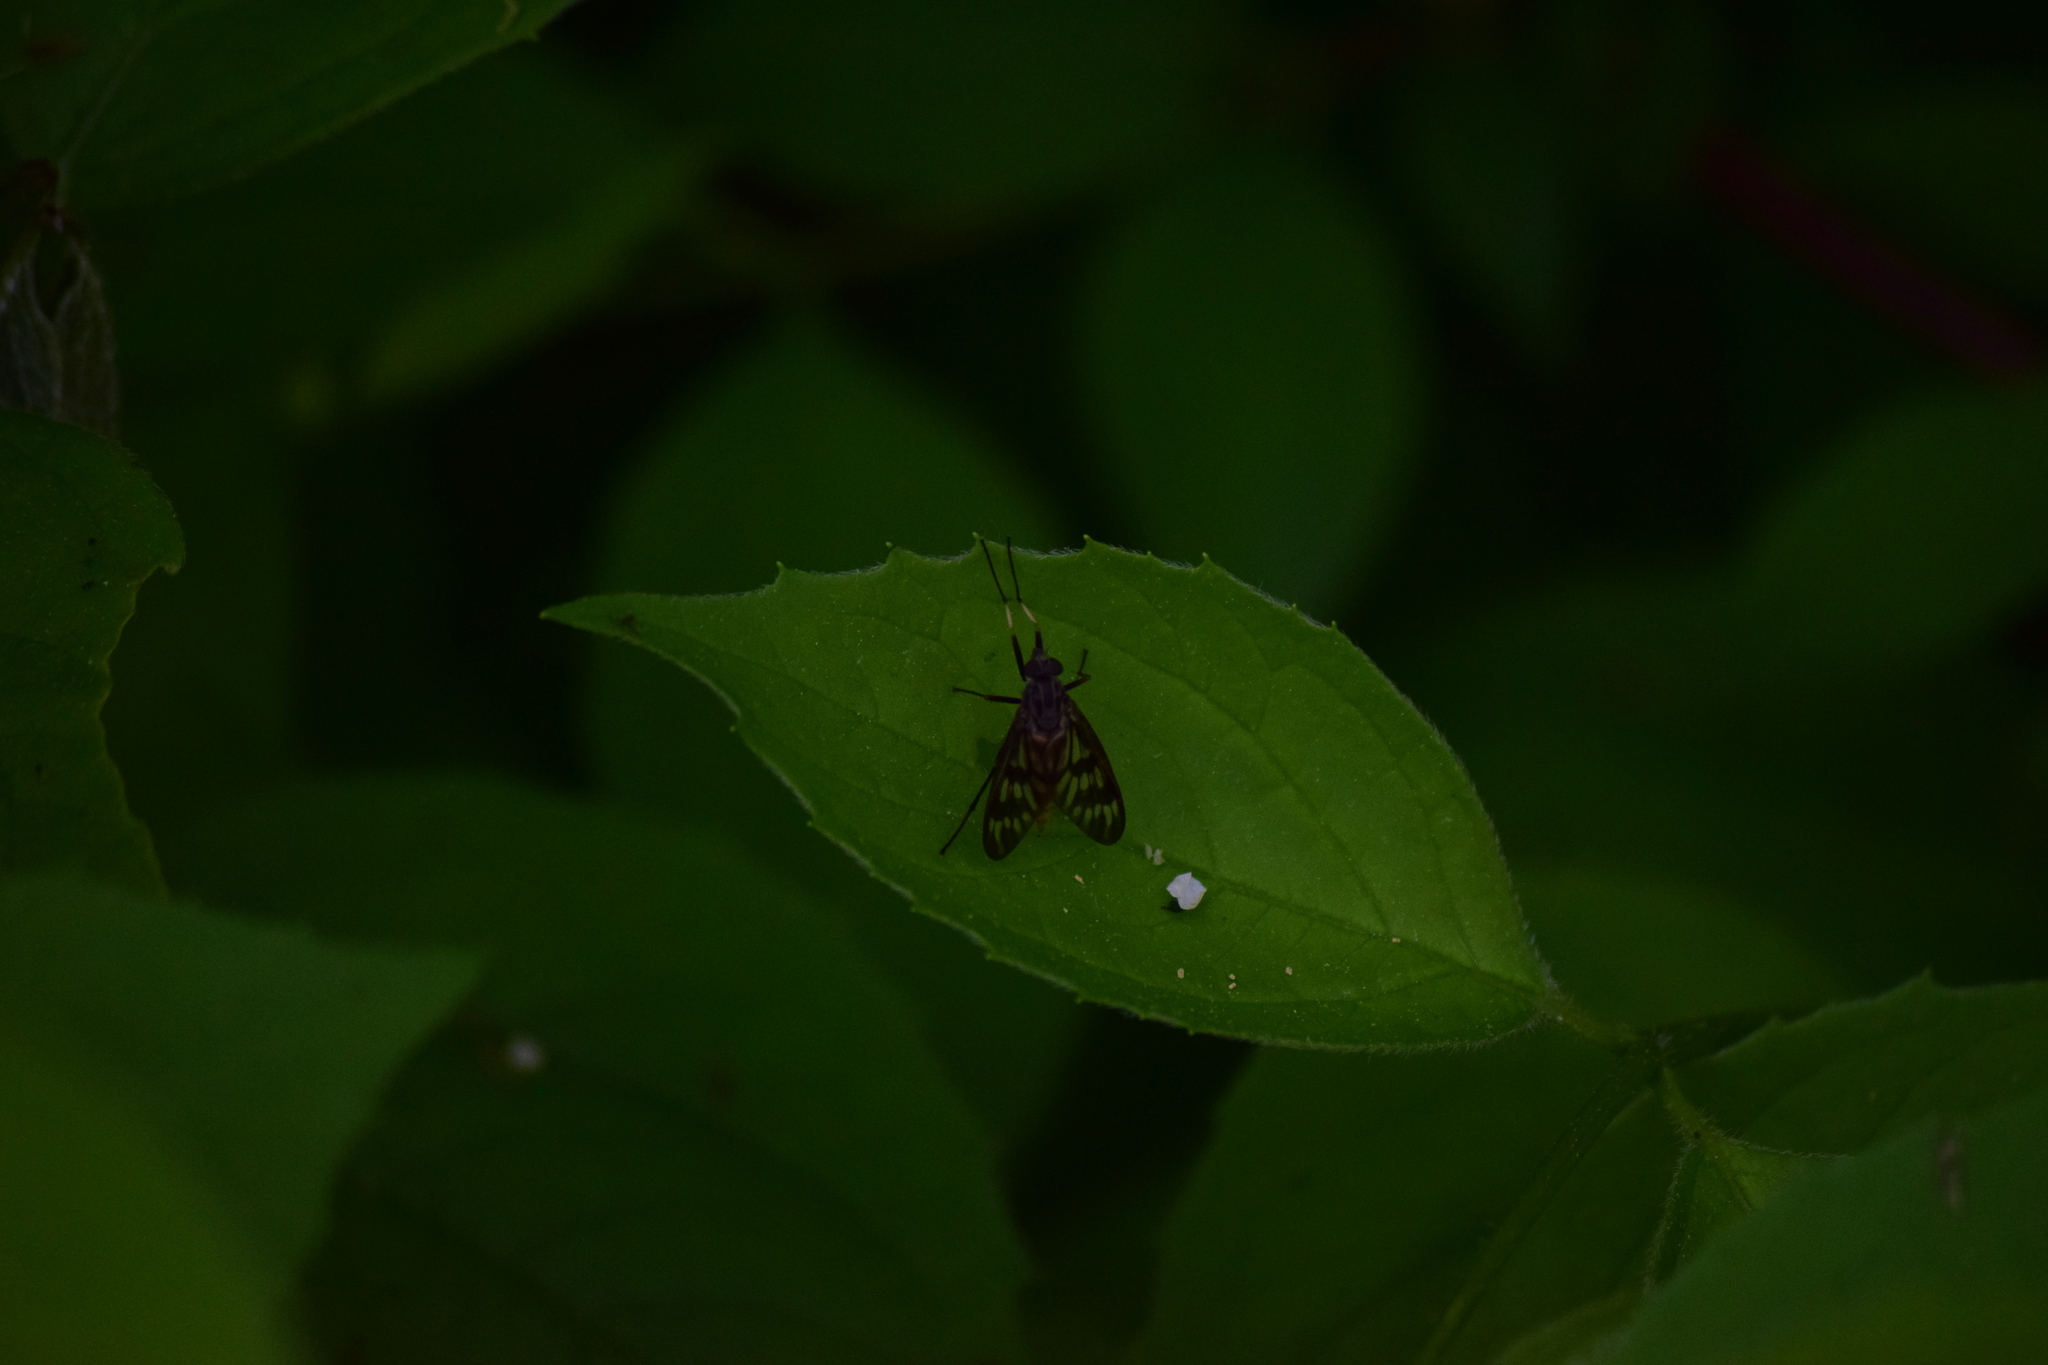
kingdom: Animalia
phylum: Arthropoda
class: Insecta
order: Diptera
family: Rhagionidae
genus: Rhagio
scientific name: Rhagio mystaceus
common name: Common snipe fly
